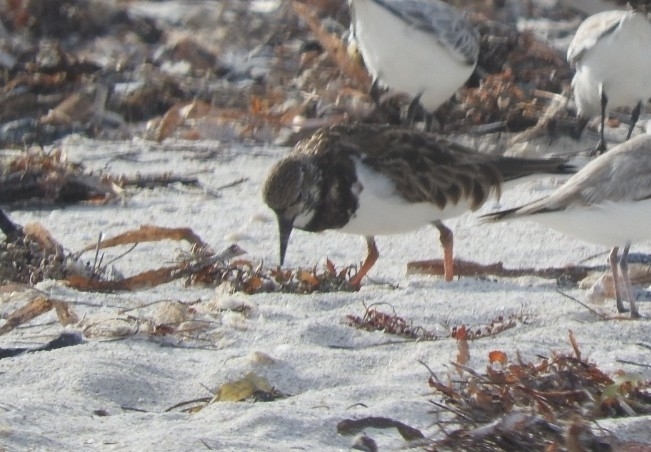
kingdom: Animalia
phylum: Chordata
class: Aves
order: Charadriiformes
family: Scolopacidae
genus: Arenaria
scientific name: Arenaria interpres
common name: Ruddy turnstone
